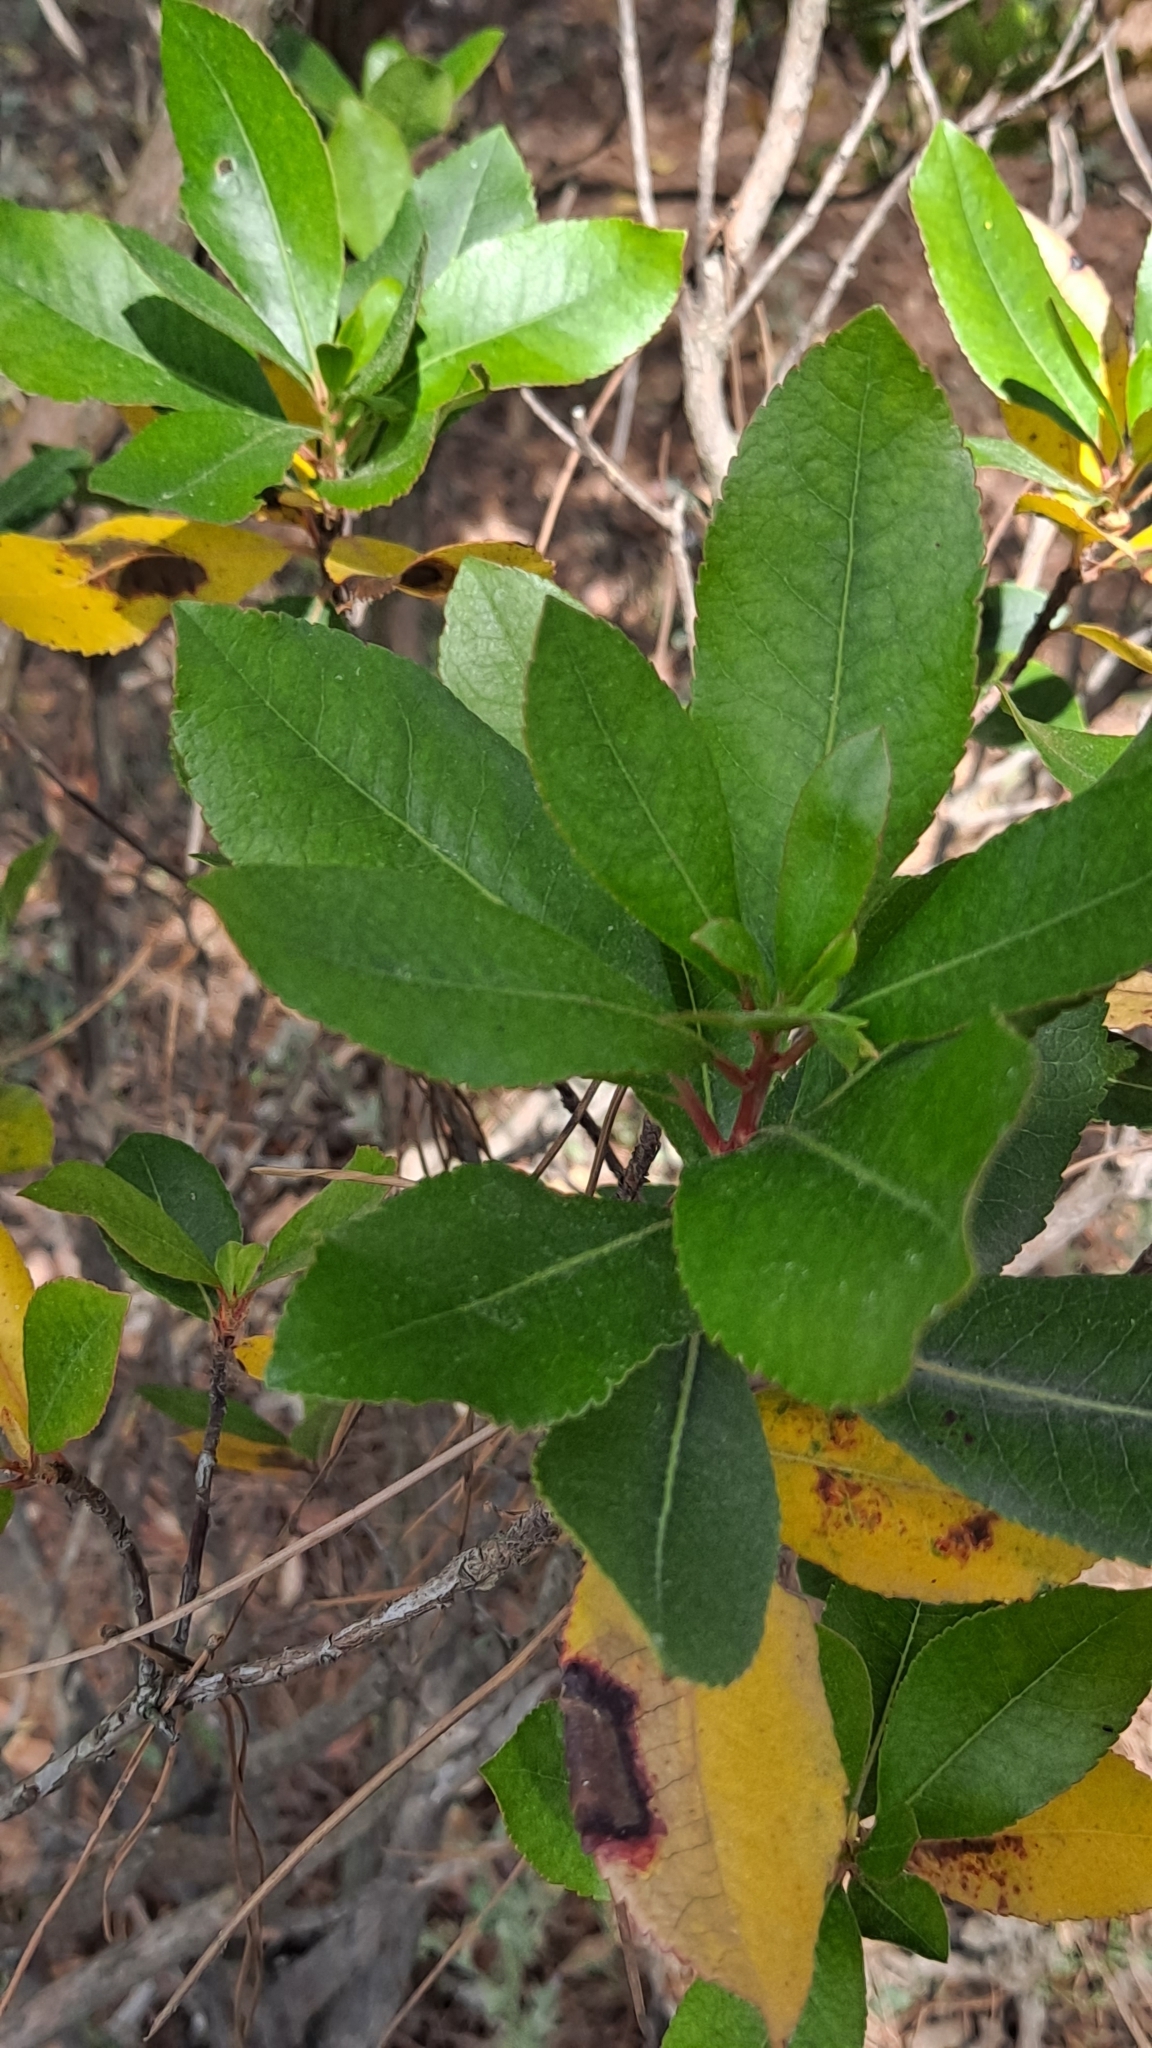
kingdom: Plantae
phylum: Tracheophyta
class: Magnoliopsida
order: Ericales
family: Ericaceae
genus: Arbutus
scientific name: Arbutus unedo
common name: Strawberry-tree
